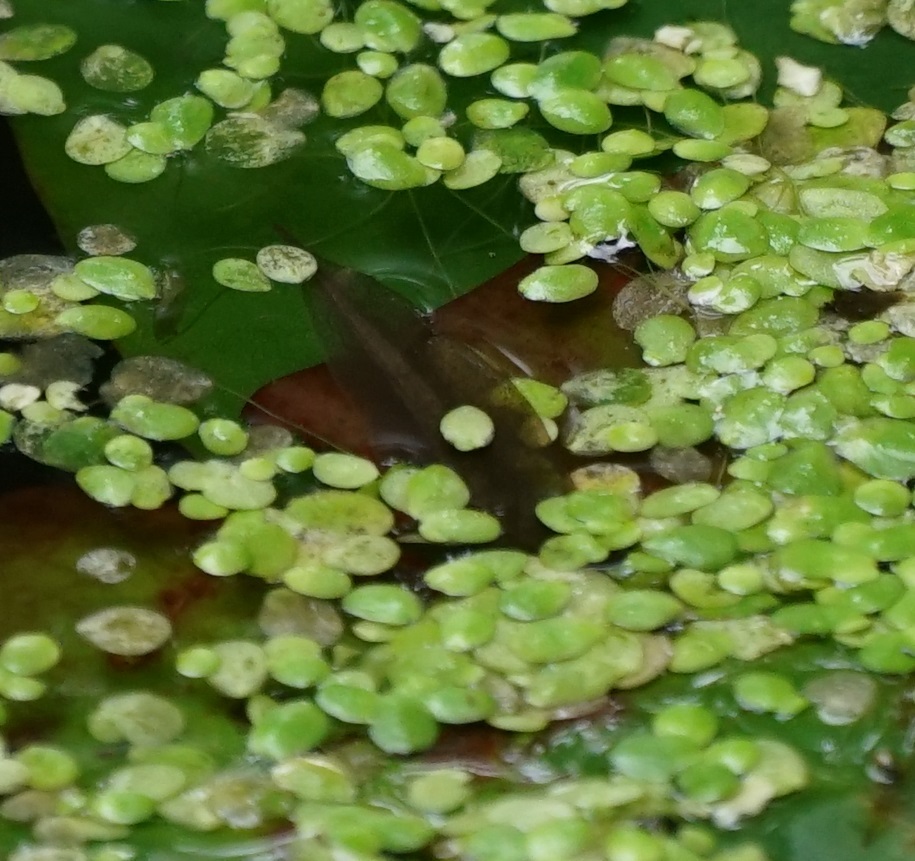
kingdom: Animalia
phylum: Chordata
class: Amphibia
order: Caudata
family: Salamandridae
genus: Lissotriton
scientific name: Lissotriton vulgaris
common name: Smooth newt
